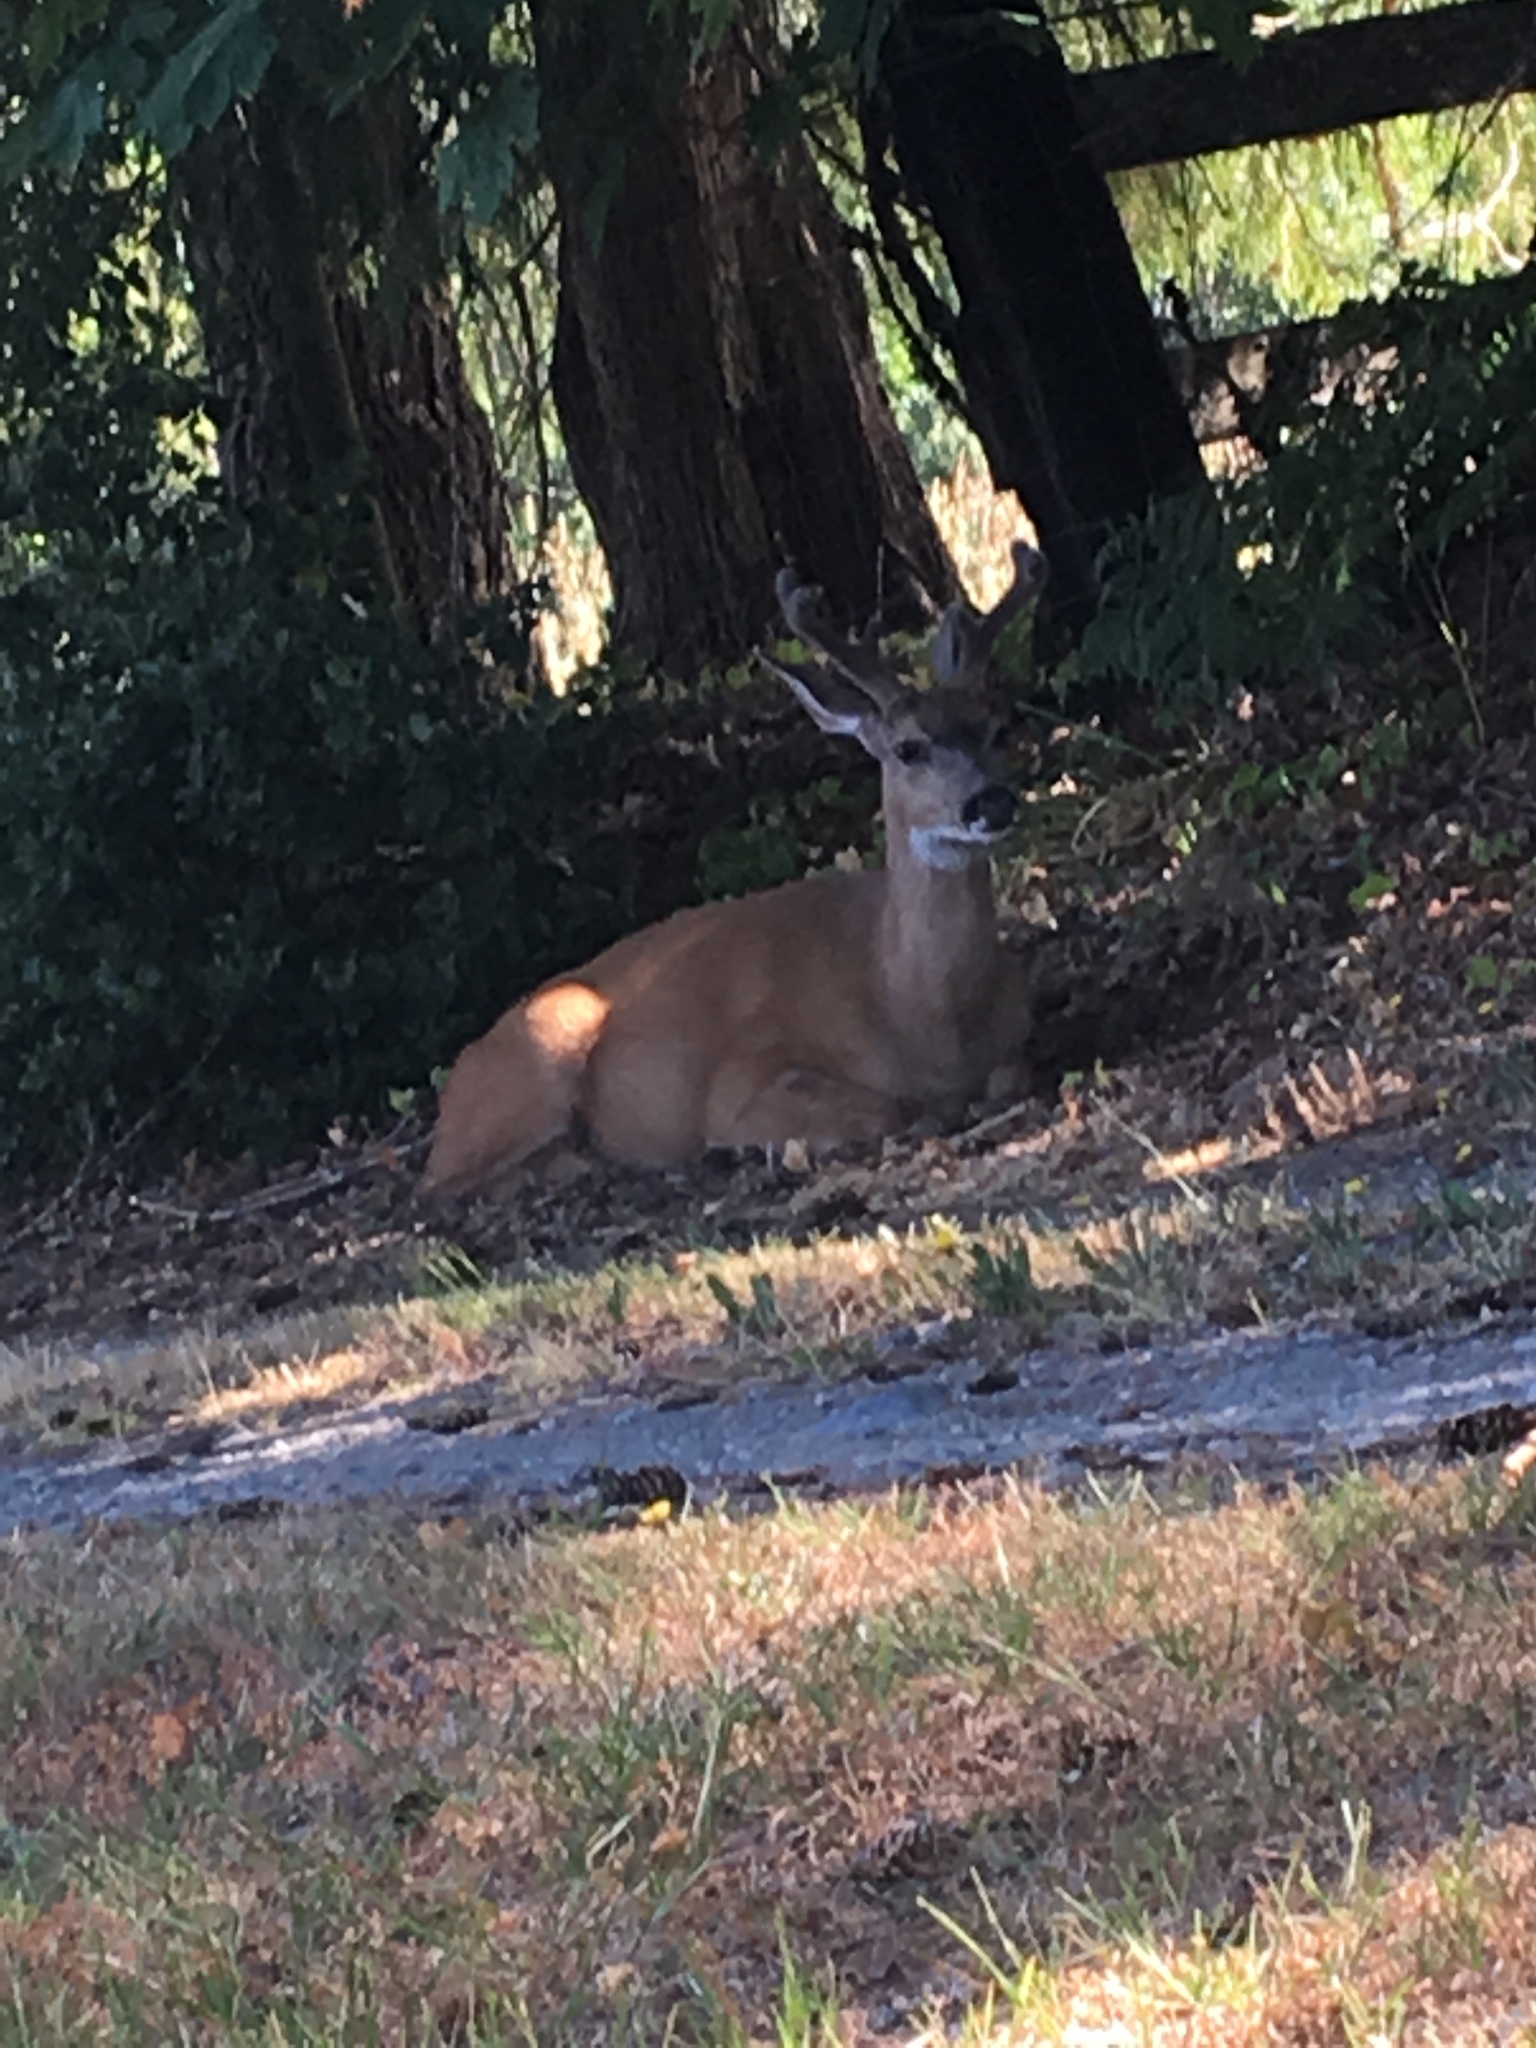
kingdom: Animalia
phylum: Chordata
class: Mammalia
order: Artiodactyla
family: Cervidae
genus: Odocoileus
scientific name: Odocoileus hemionus
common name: Mule deer
